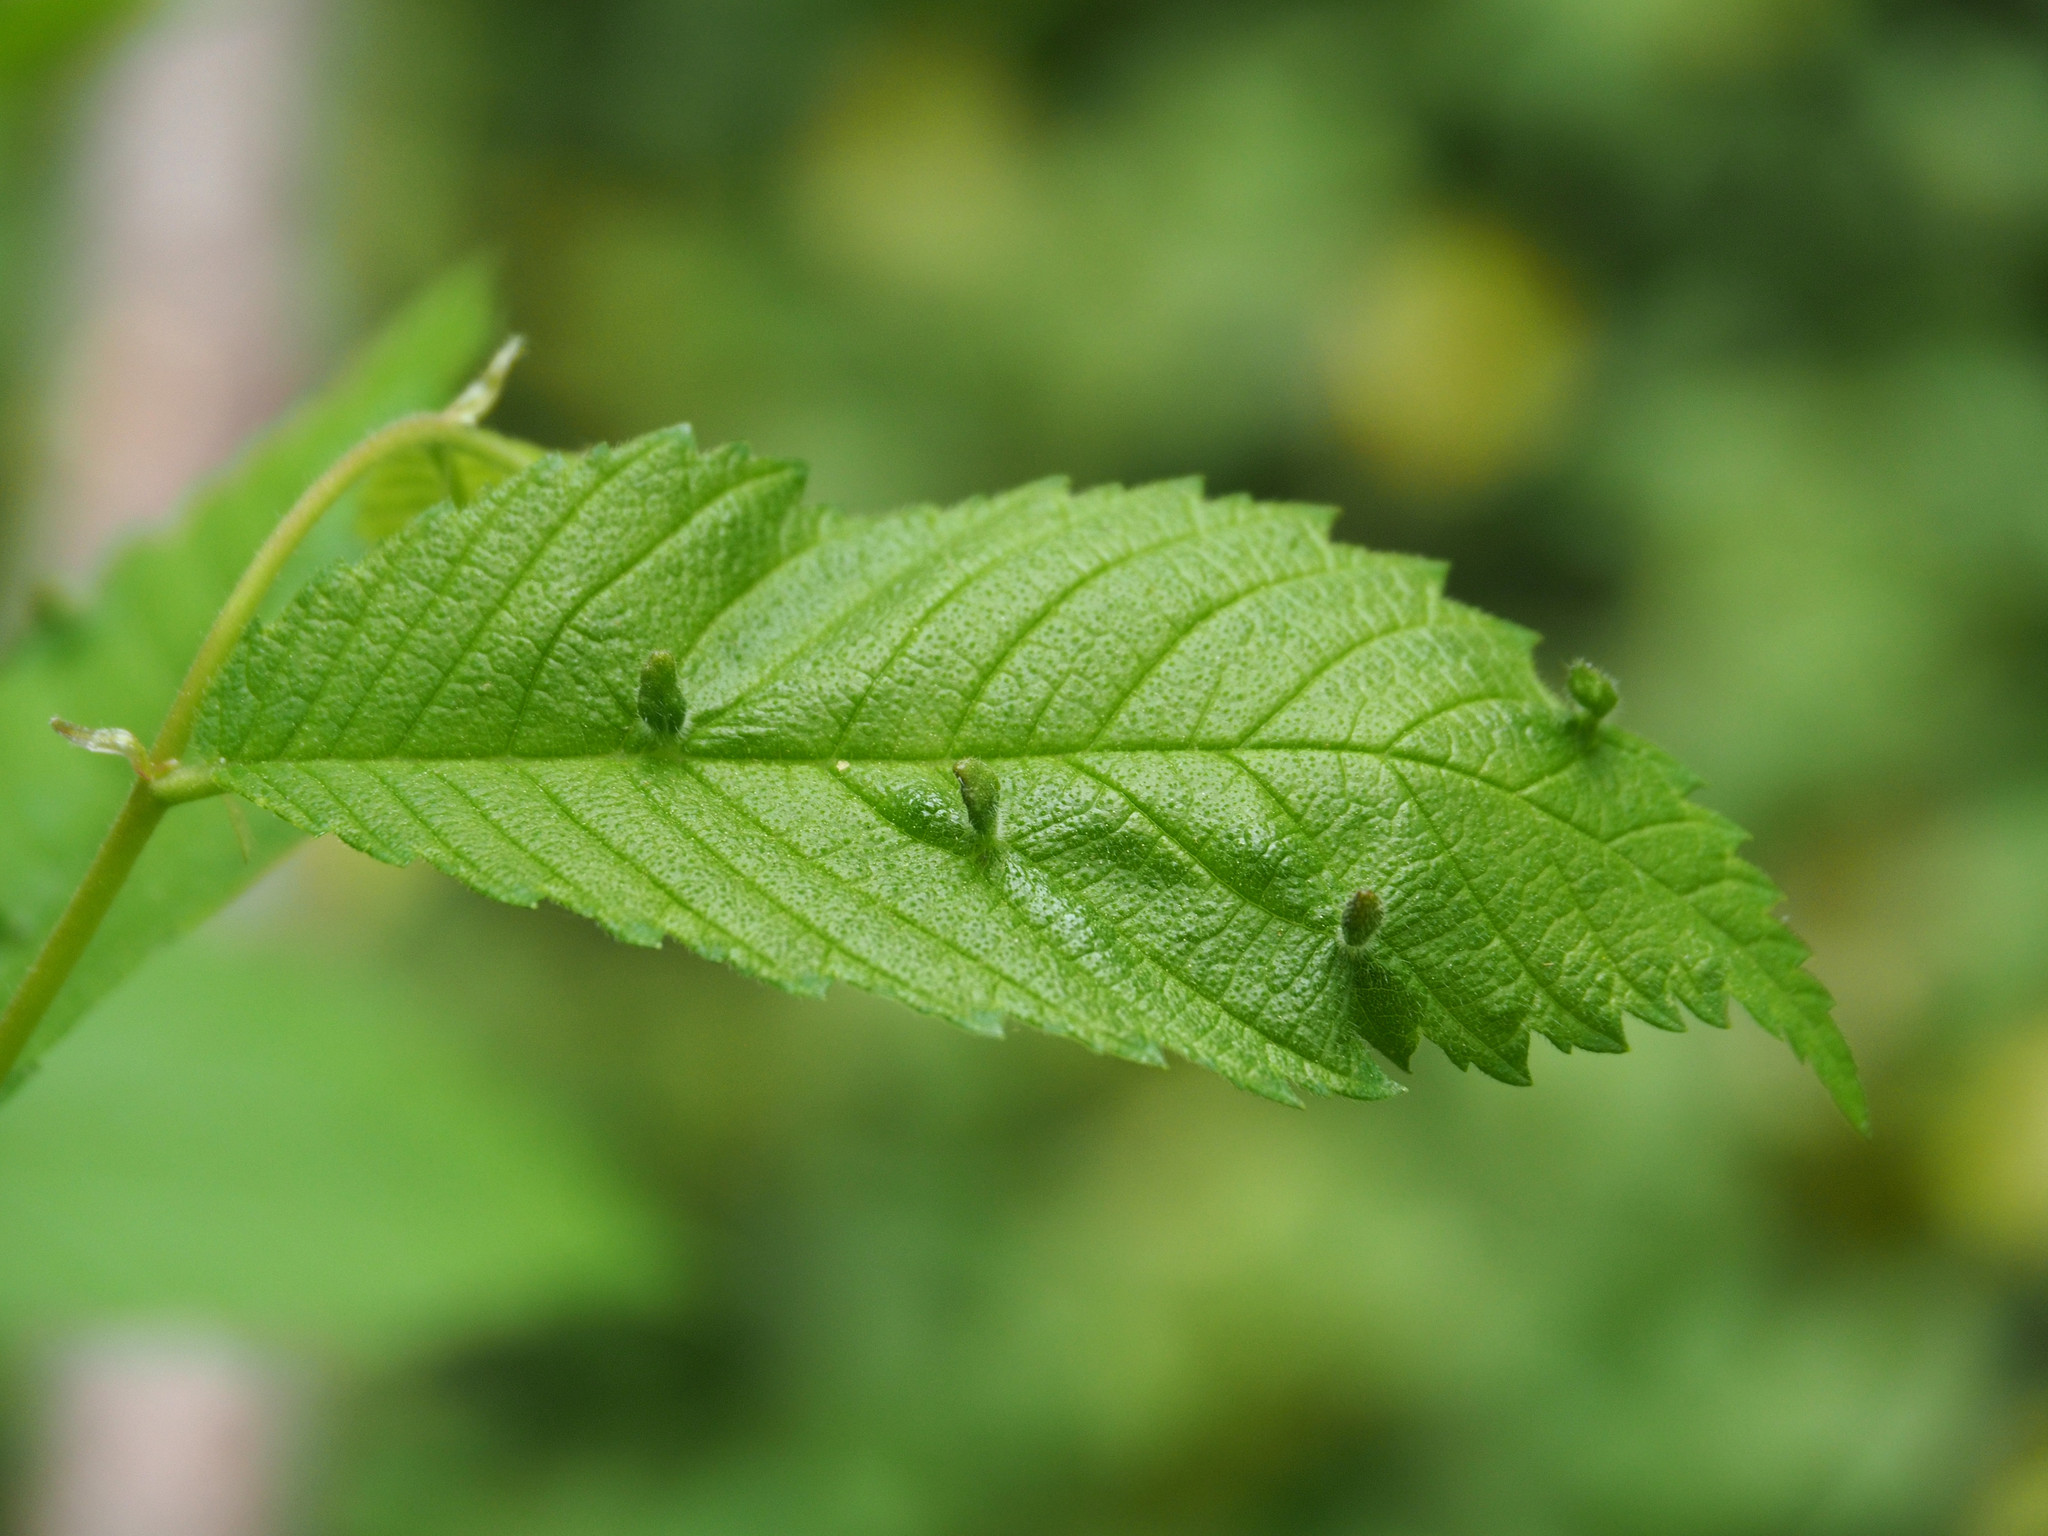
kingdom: Animalia
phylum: Arthropoda
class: Arachnida
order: Trombidiformes
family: Eriophyidae
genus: Aceria
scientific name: Aceria
